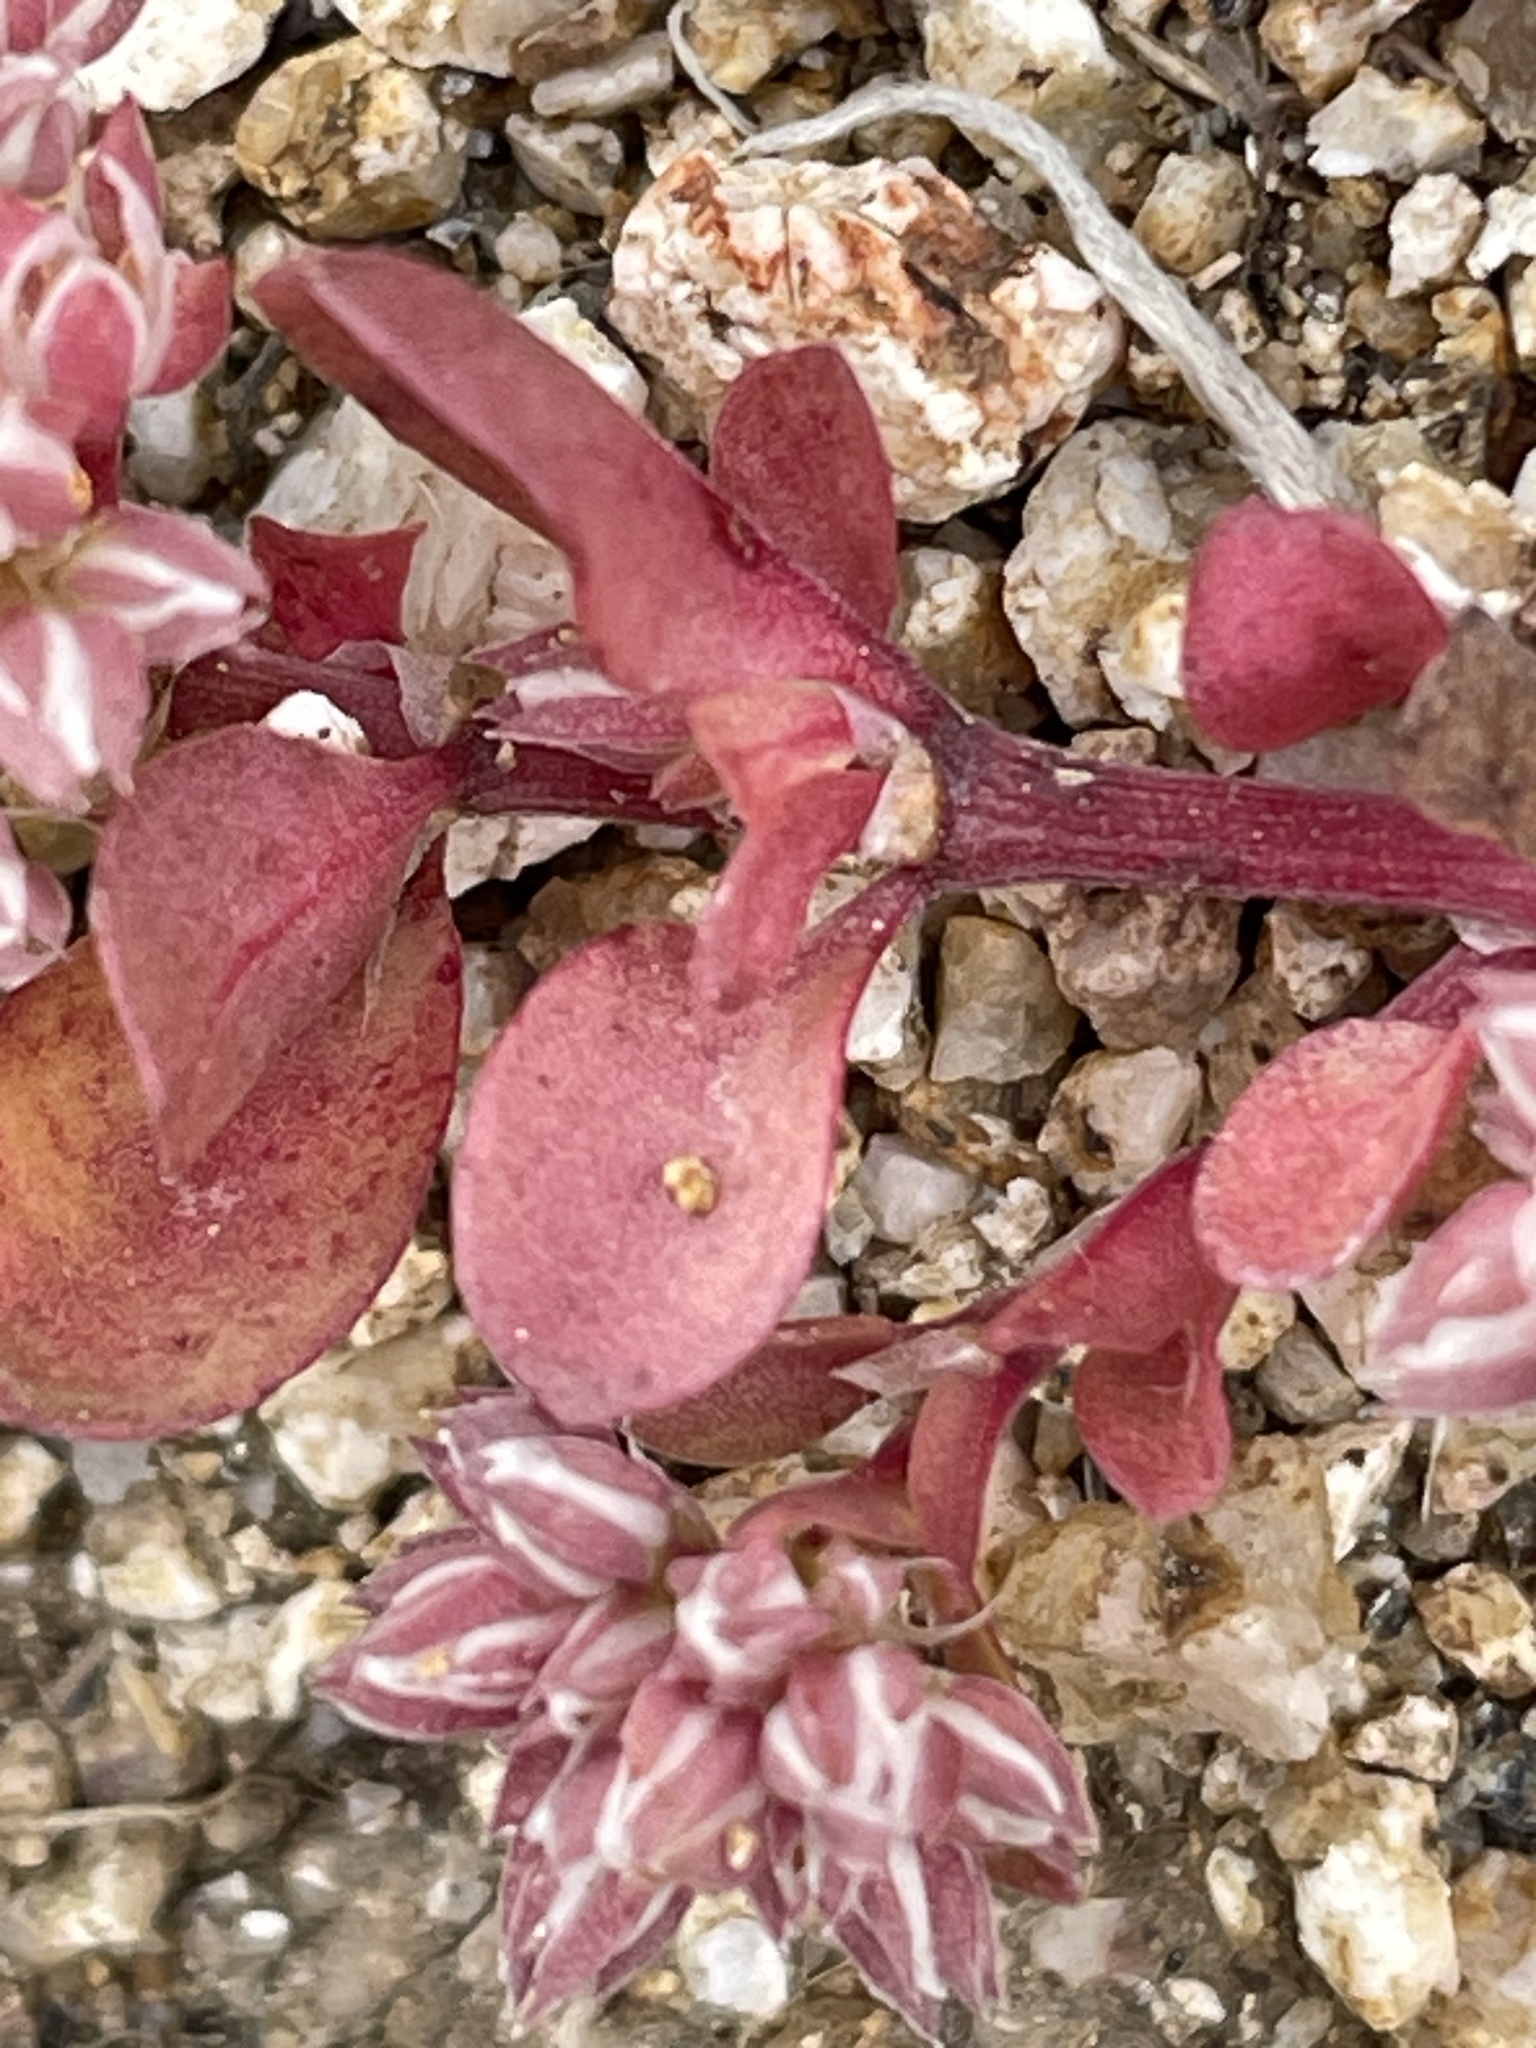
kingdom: Plantae
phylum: Tracheophyta
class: Magnoliopsida
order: Caryophyllales
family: Caryophyllaceae
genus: Polycarpon
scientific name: Polycarpon tetraphyllum
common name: Four-leaved all-seed
